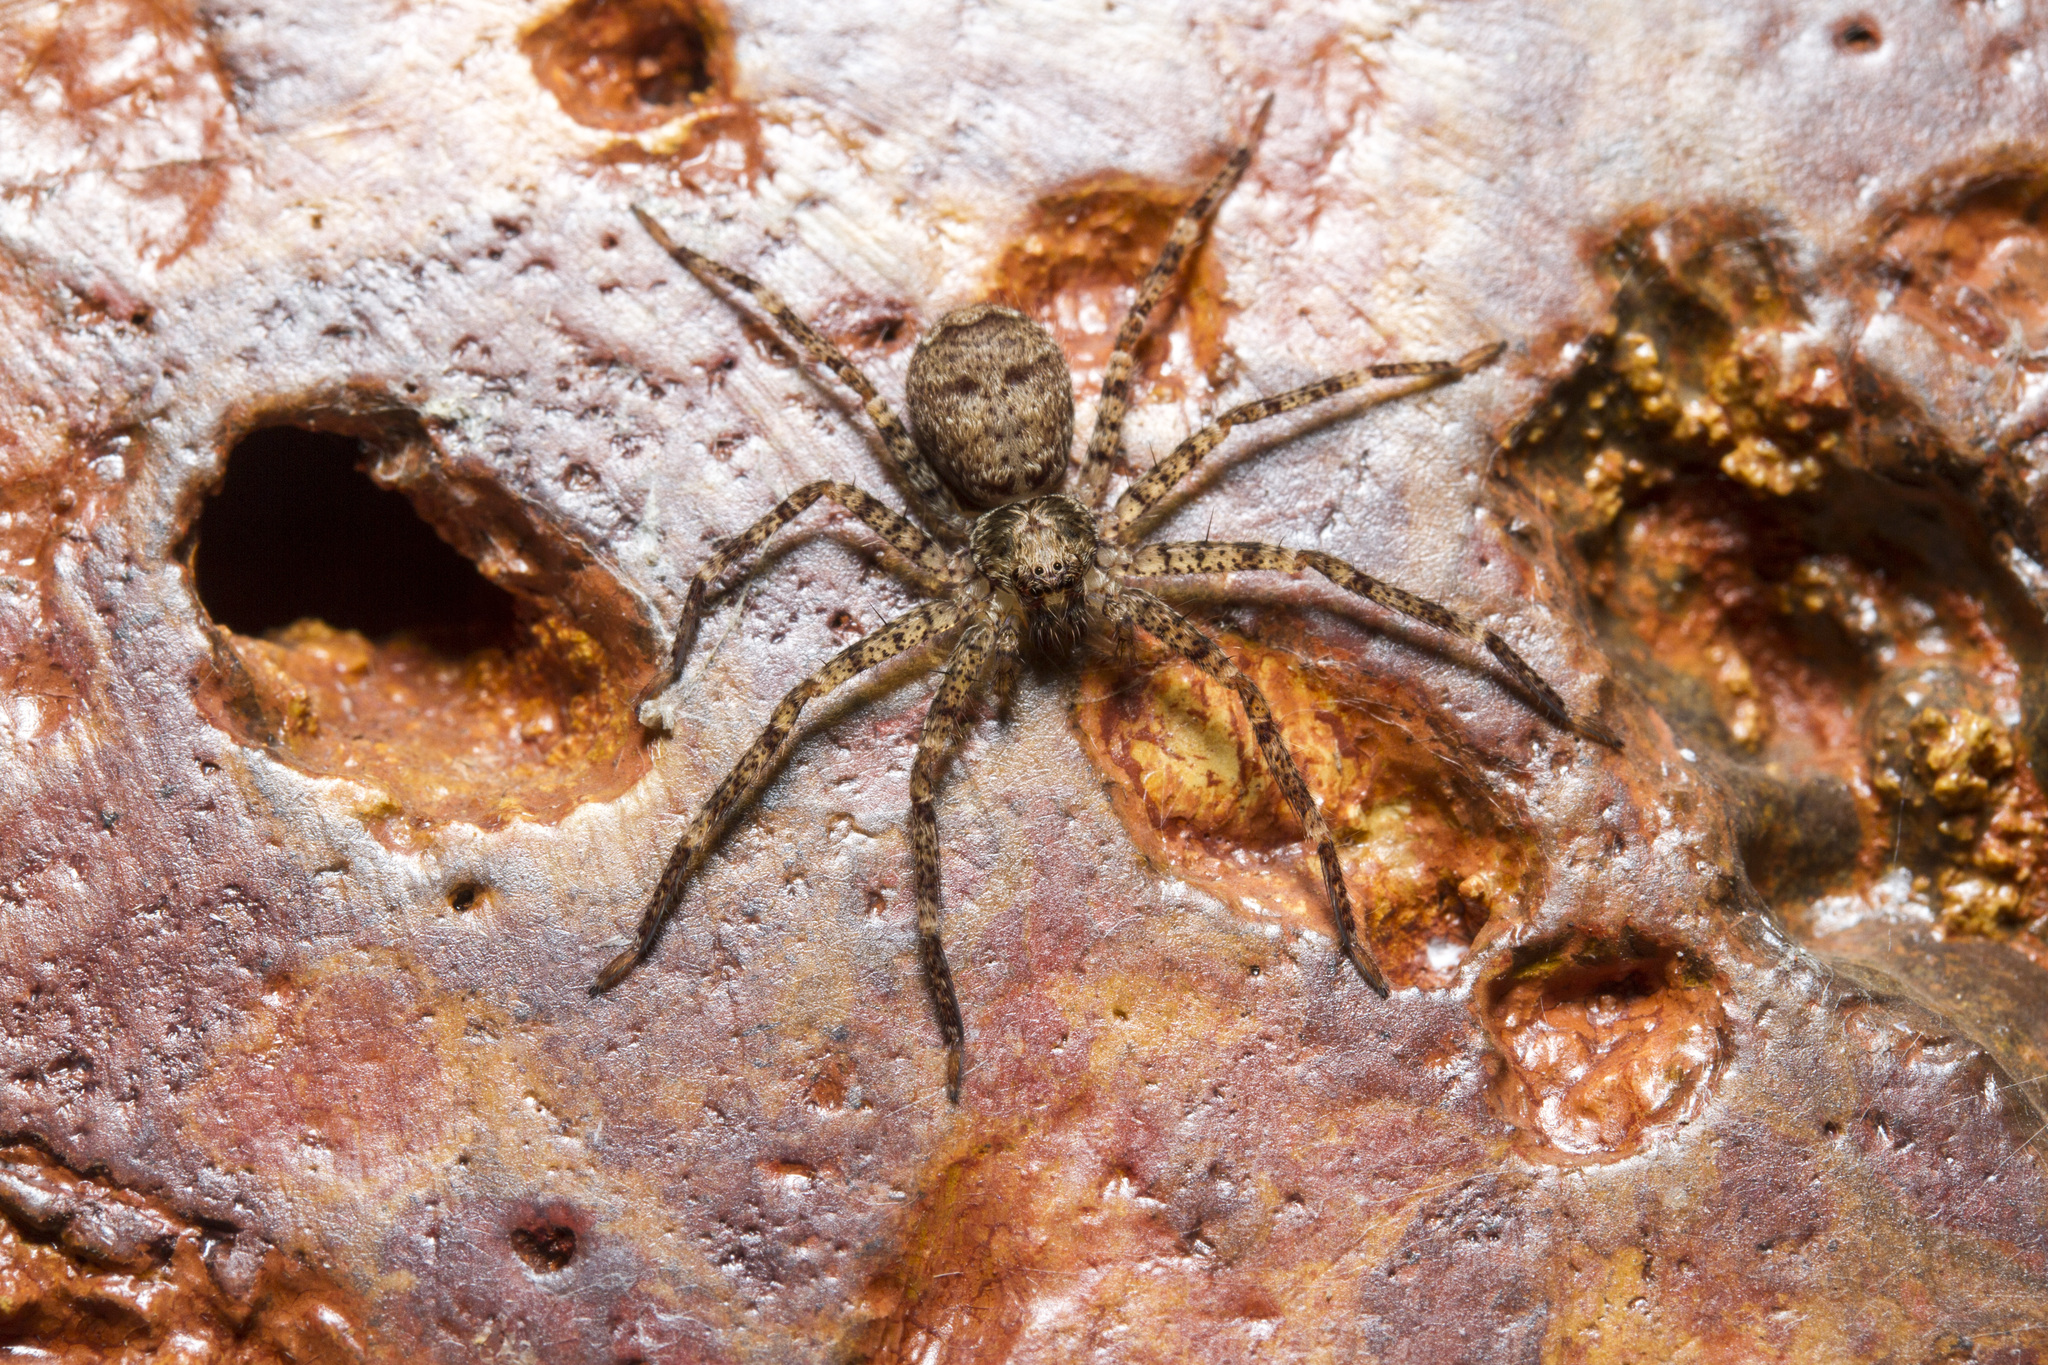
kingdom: Animalia
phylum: Arthropoda
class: Arachnida
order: Araneae
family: Sparassidae
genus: Heteropoda
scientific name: Heteropoda venatoria
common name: Huntsman spider
